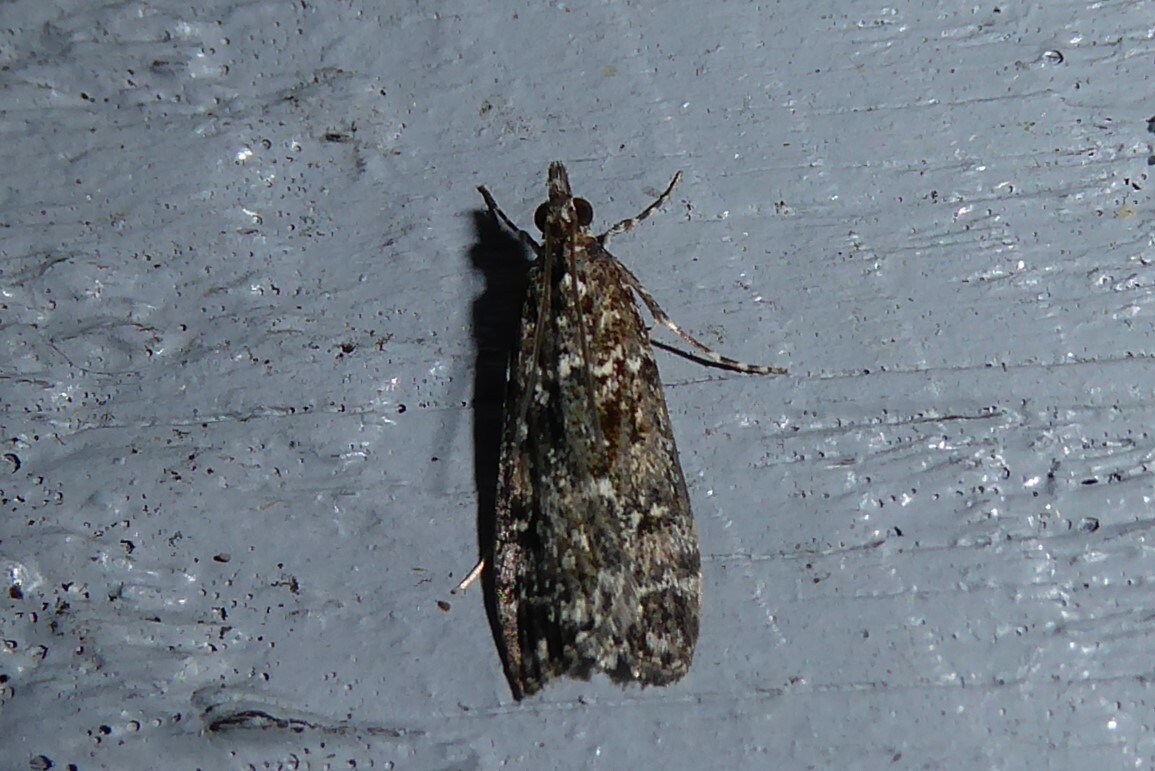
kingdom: Animalia
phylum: Arthropoda
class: Insecta
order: Lepidoptera
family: Crambidae
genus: Eudonia
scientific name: Eudonia philerga
